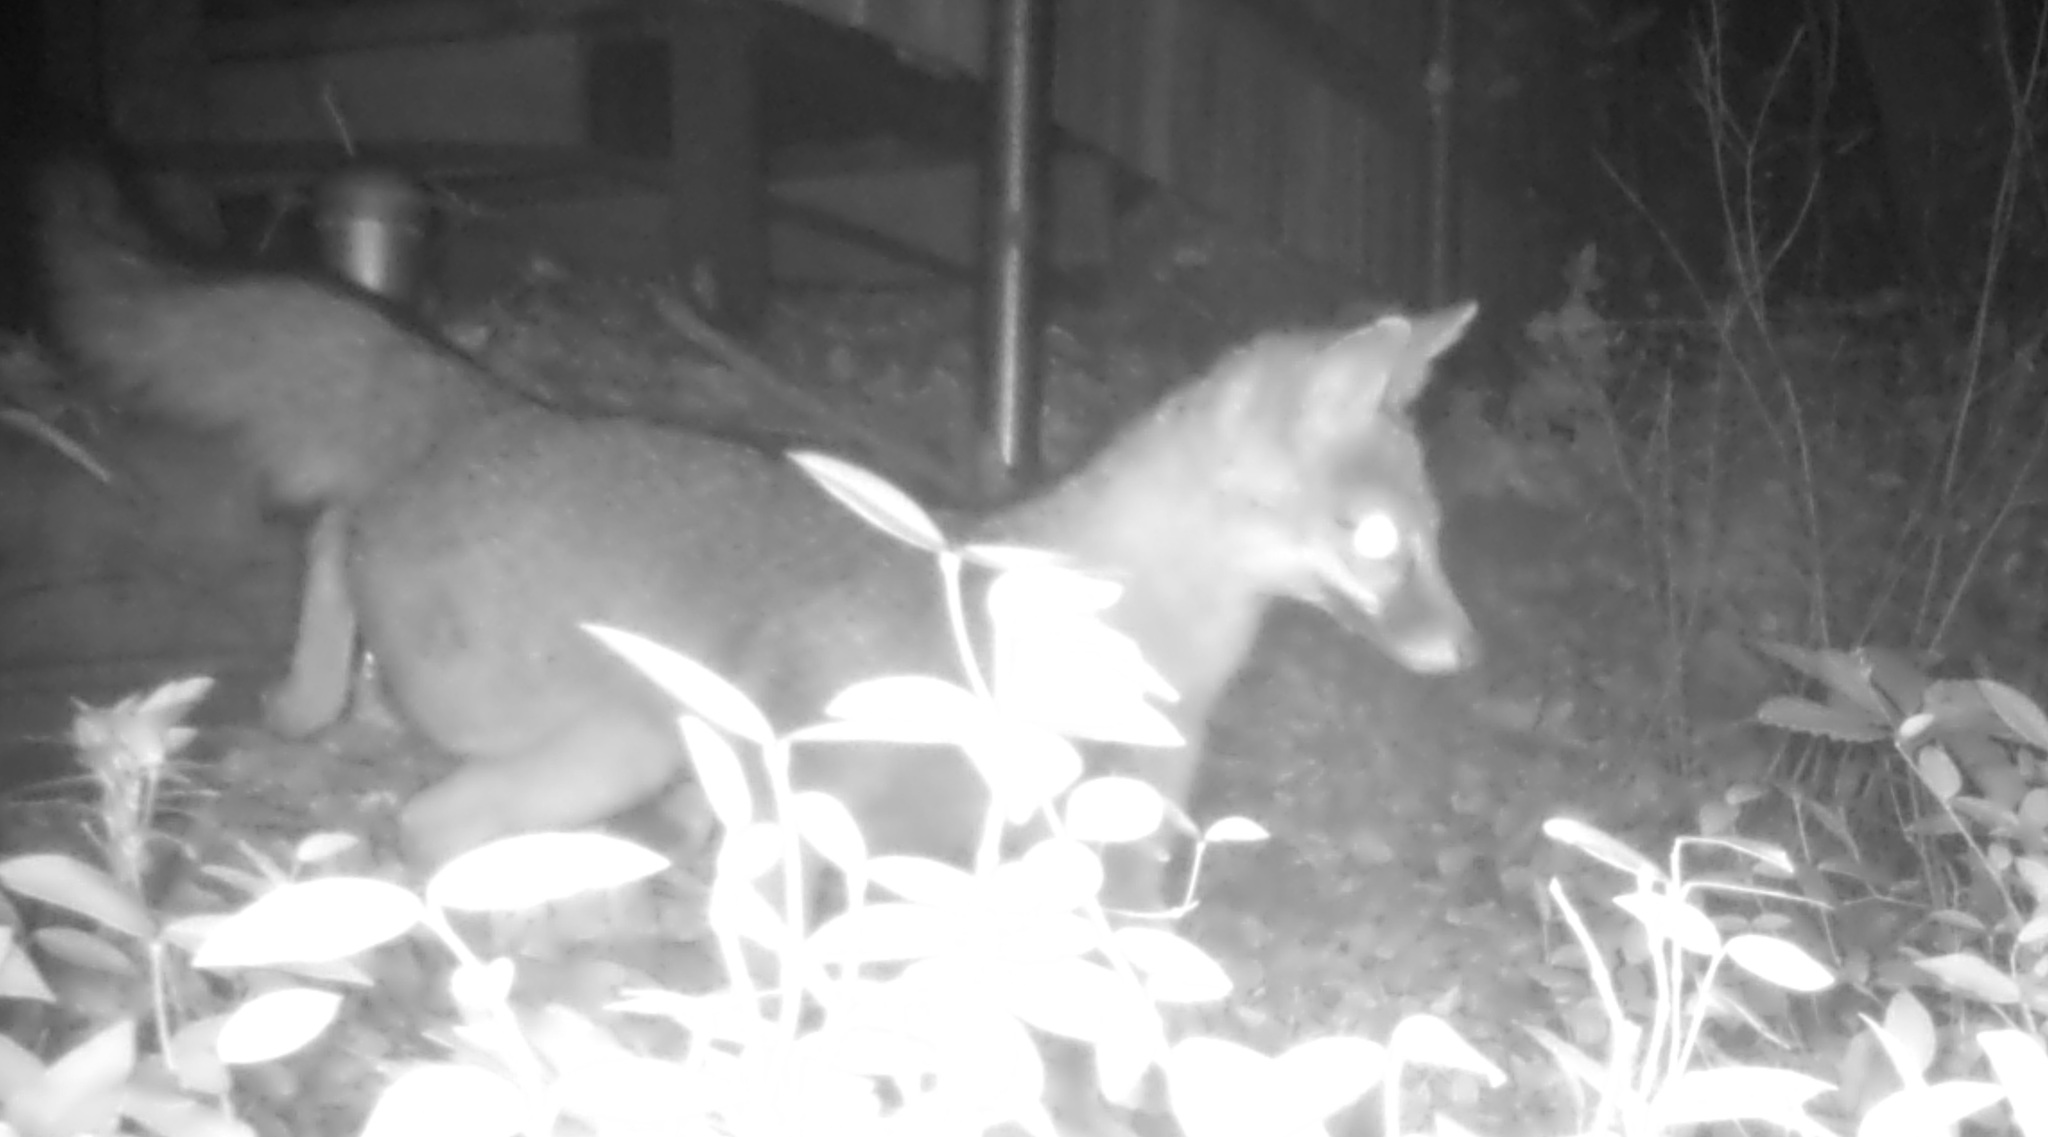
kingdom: Animalia
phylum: Chordata
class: Mammalia
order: Carnivora
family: Canidae
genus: Urocyon
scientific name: Urocyon cinereoargenteus
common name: Gray fox
